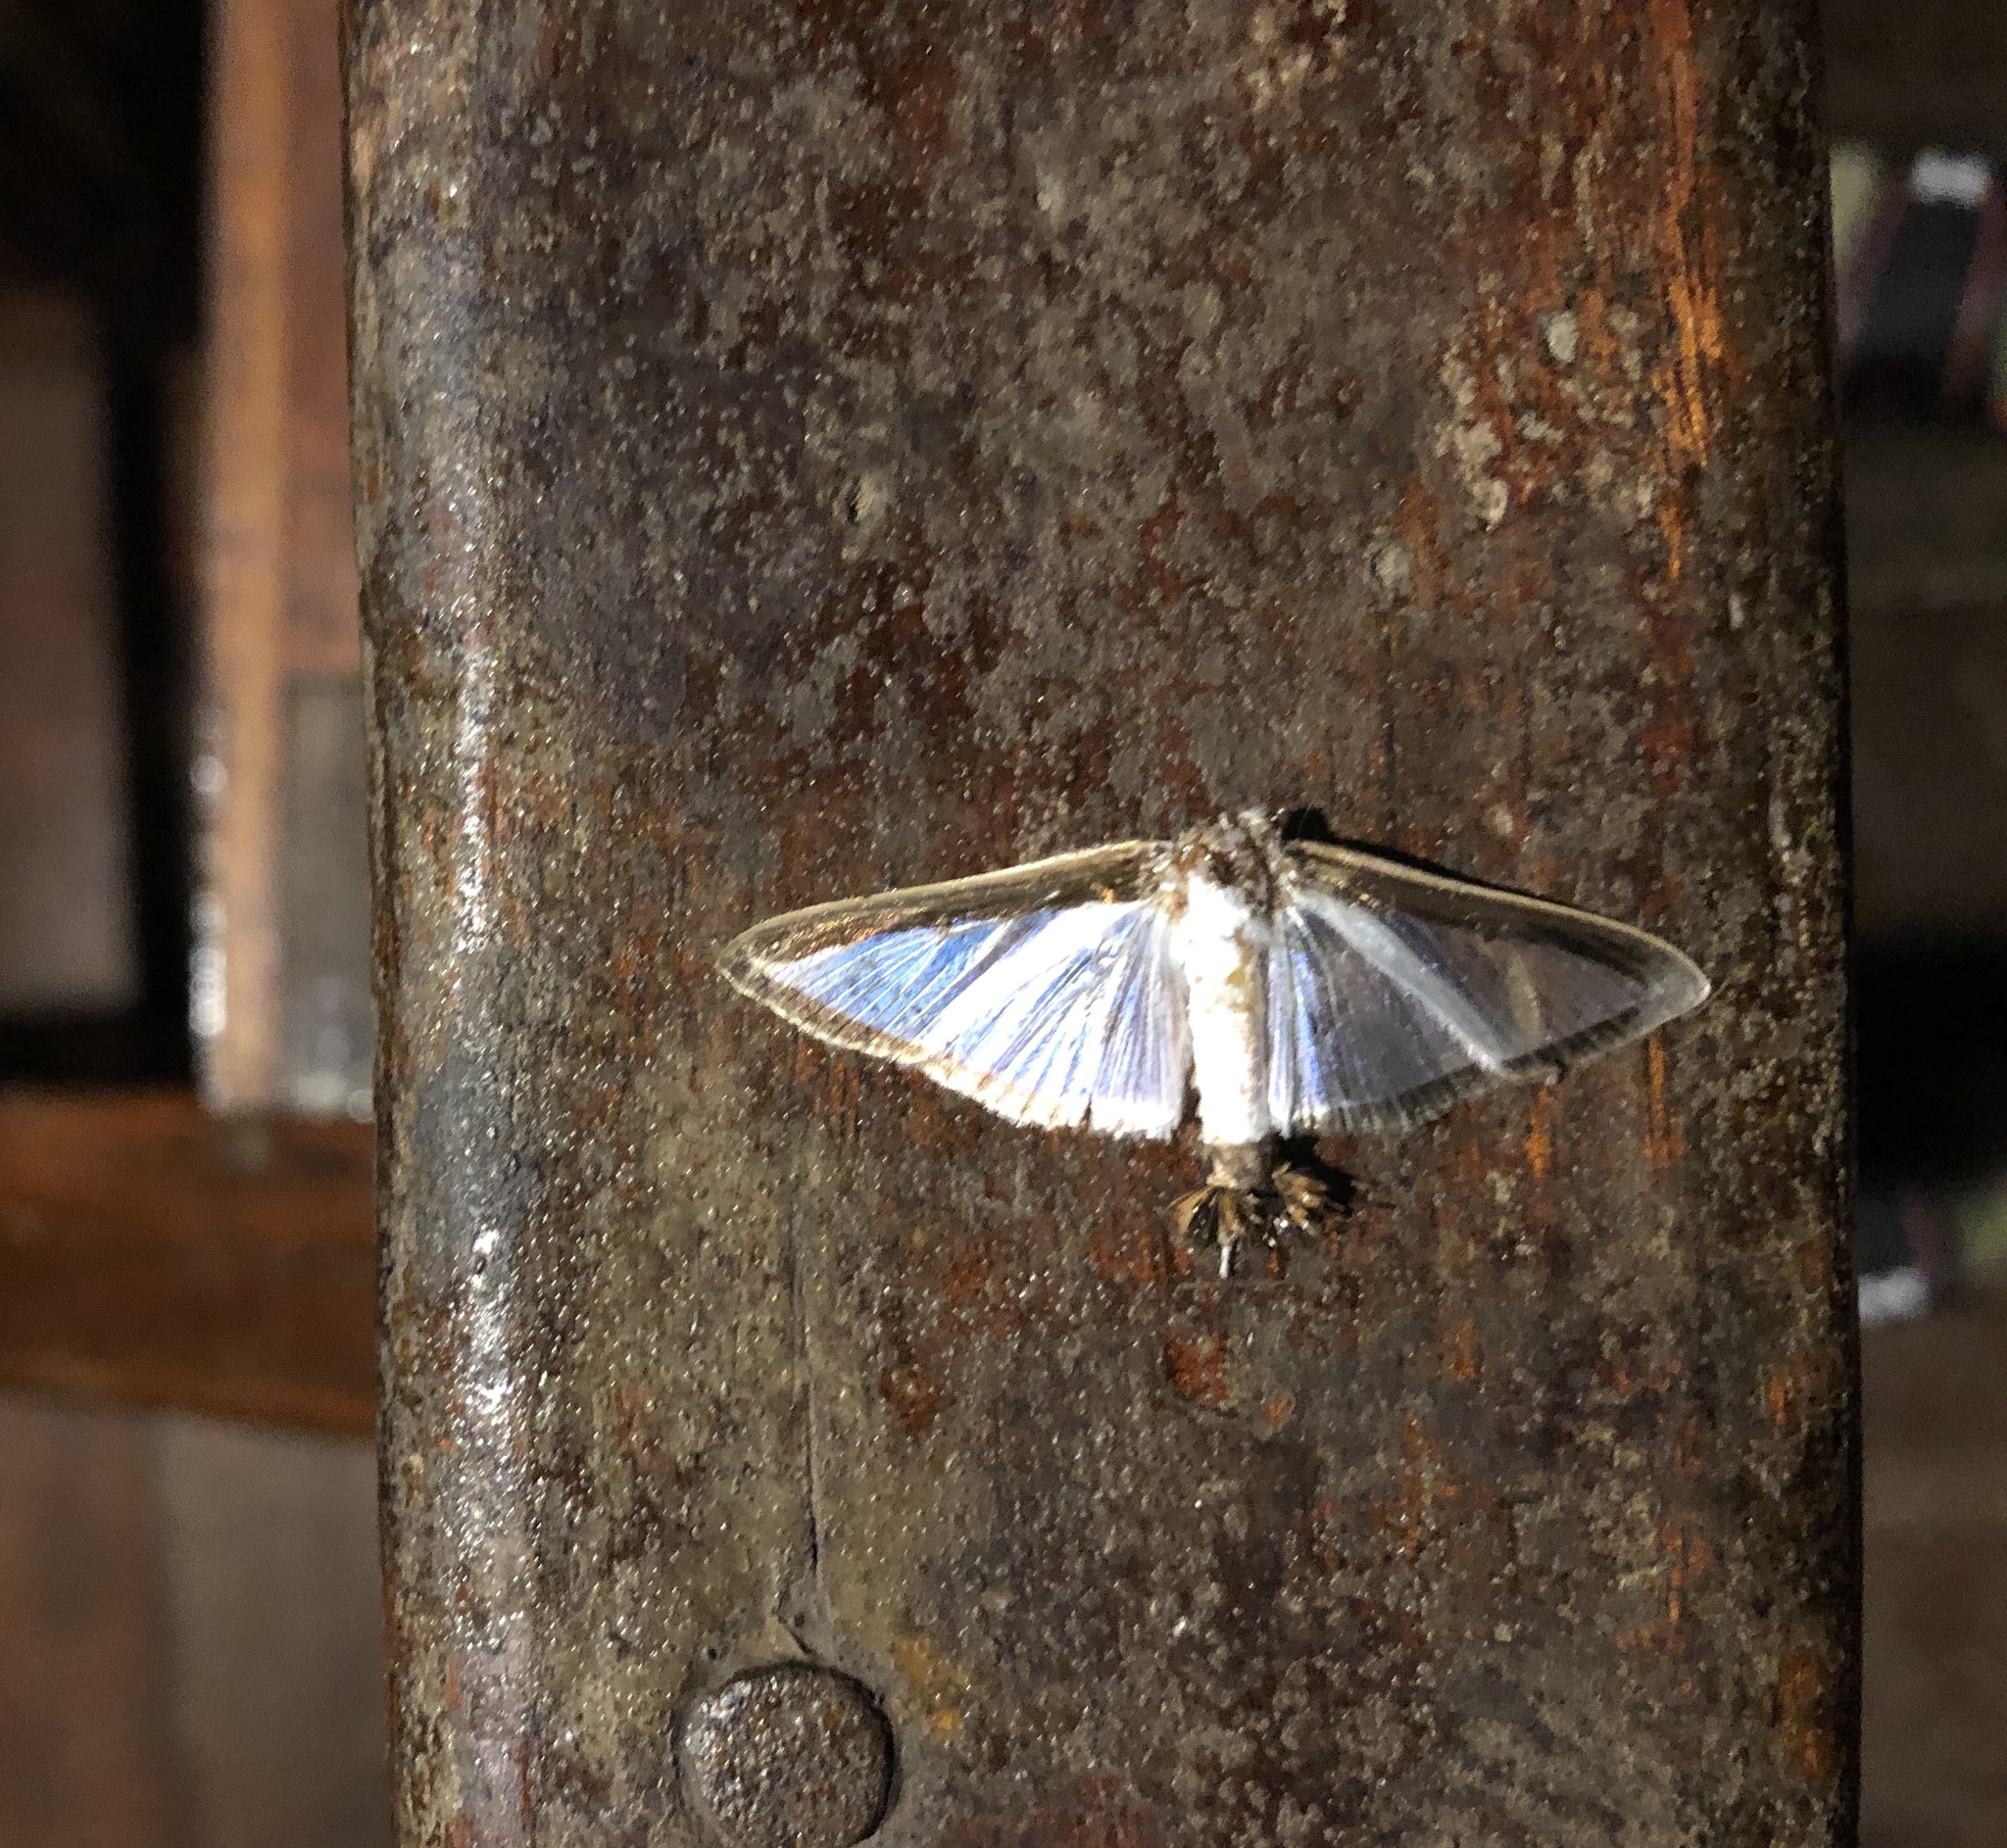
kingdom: Animalia
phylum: Arthropoda
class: Insecta
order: Lepidoptera
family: Crambidae
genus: Diaphania
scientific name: Diaphania hyalinata
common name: Melonworm
